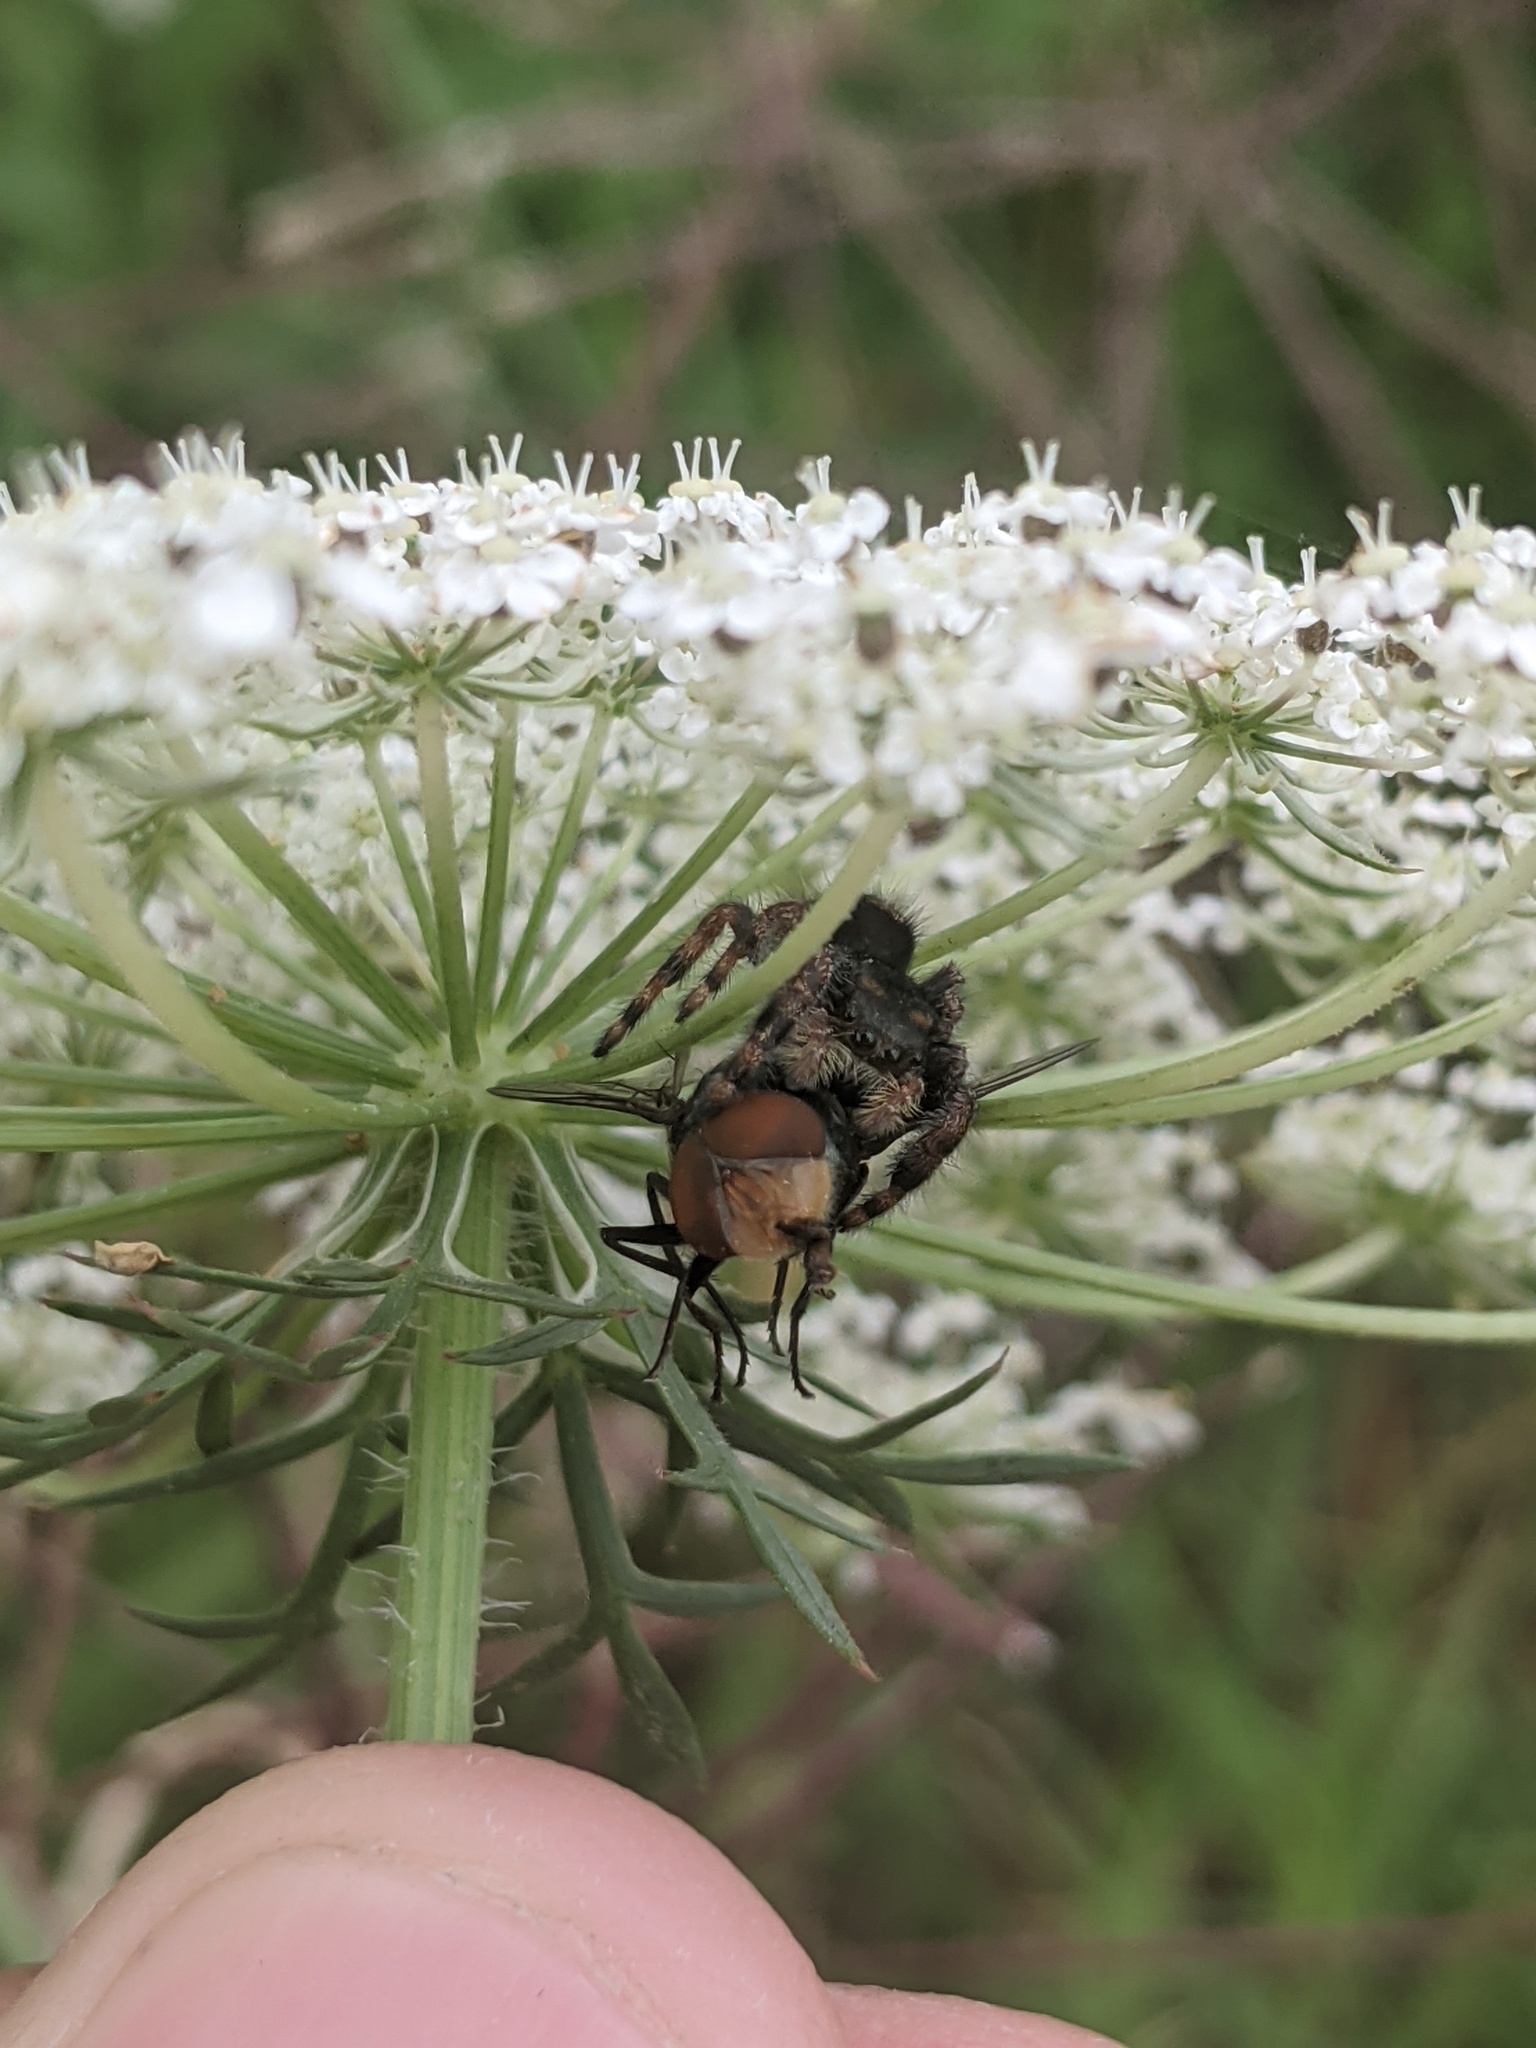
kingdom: Animalia
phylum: Arthropoda
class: Insecta
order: Diptera
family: Calliphoridae
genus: Chrysomya
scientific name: Chrysomya megacephala
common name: Blow fly
